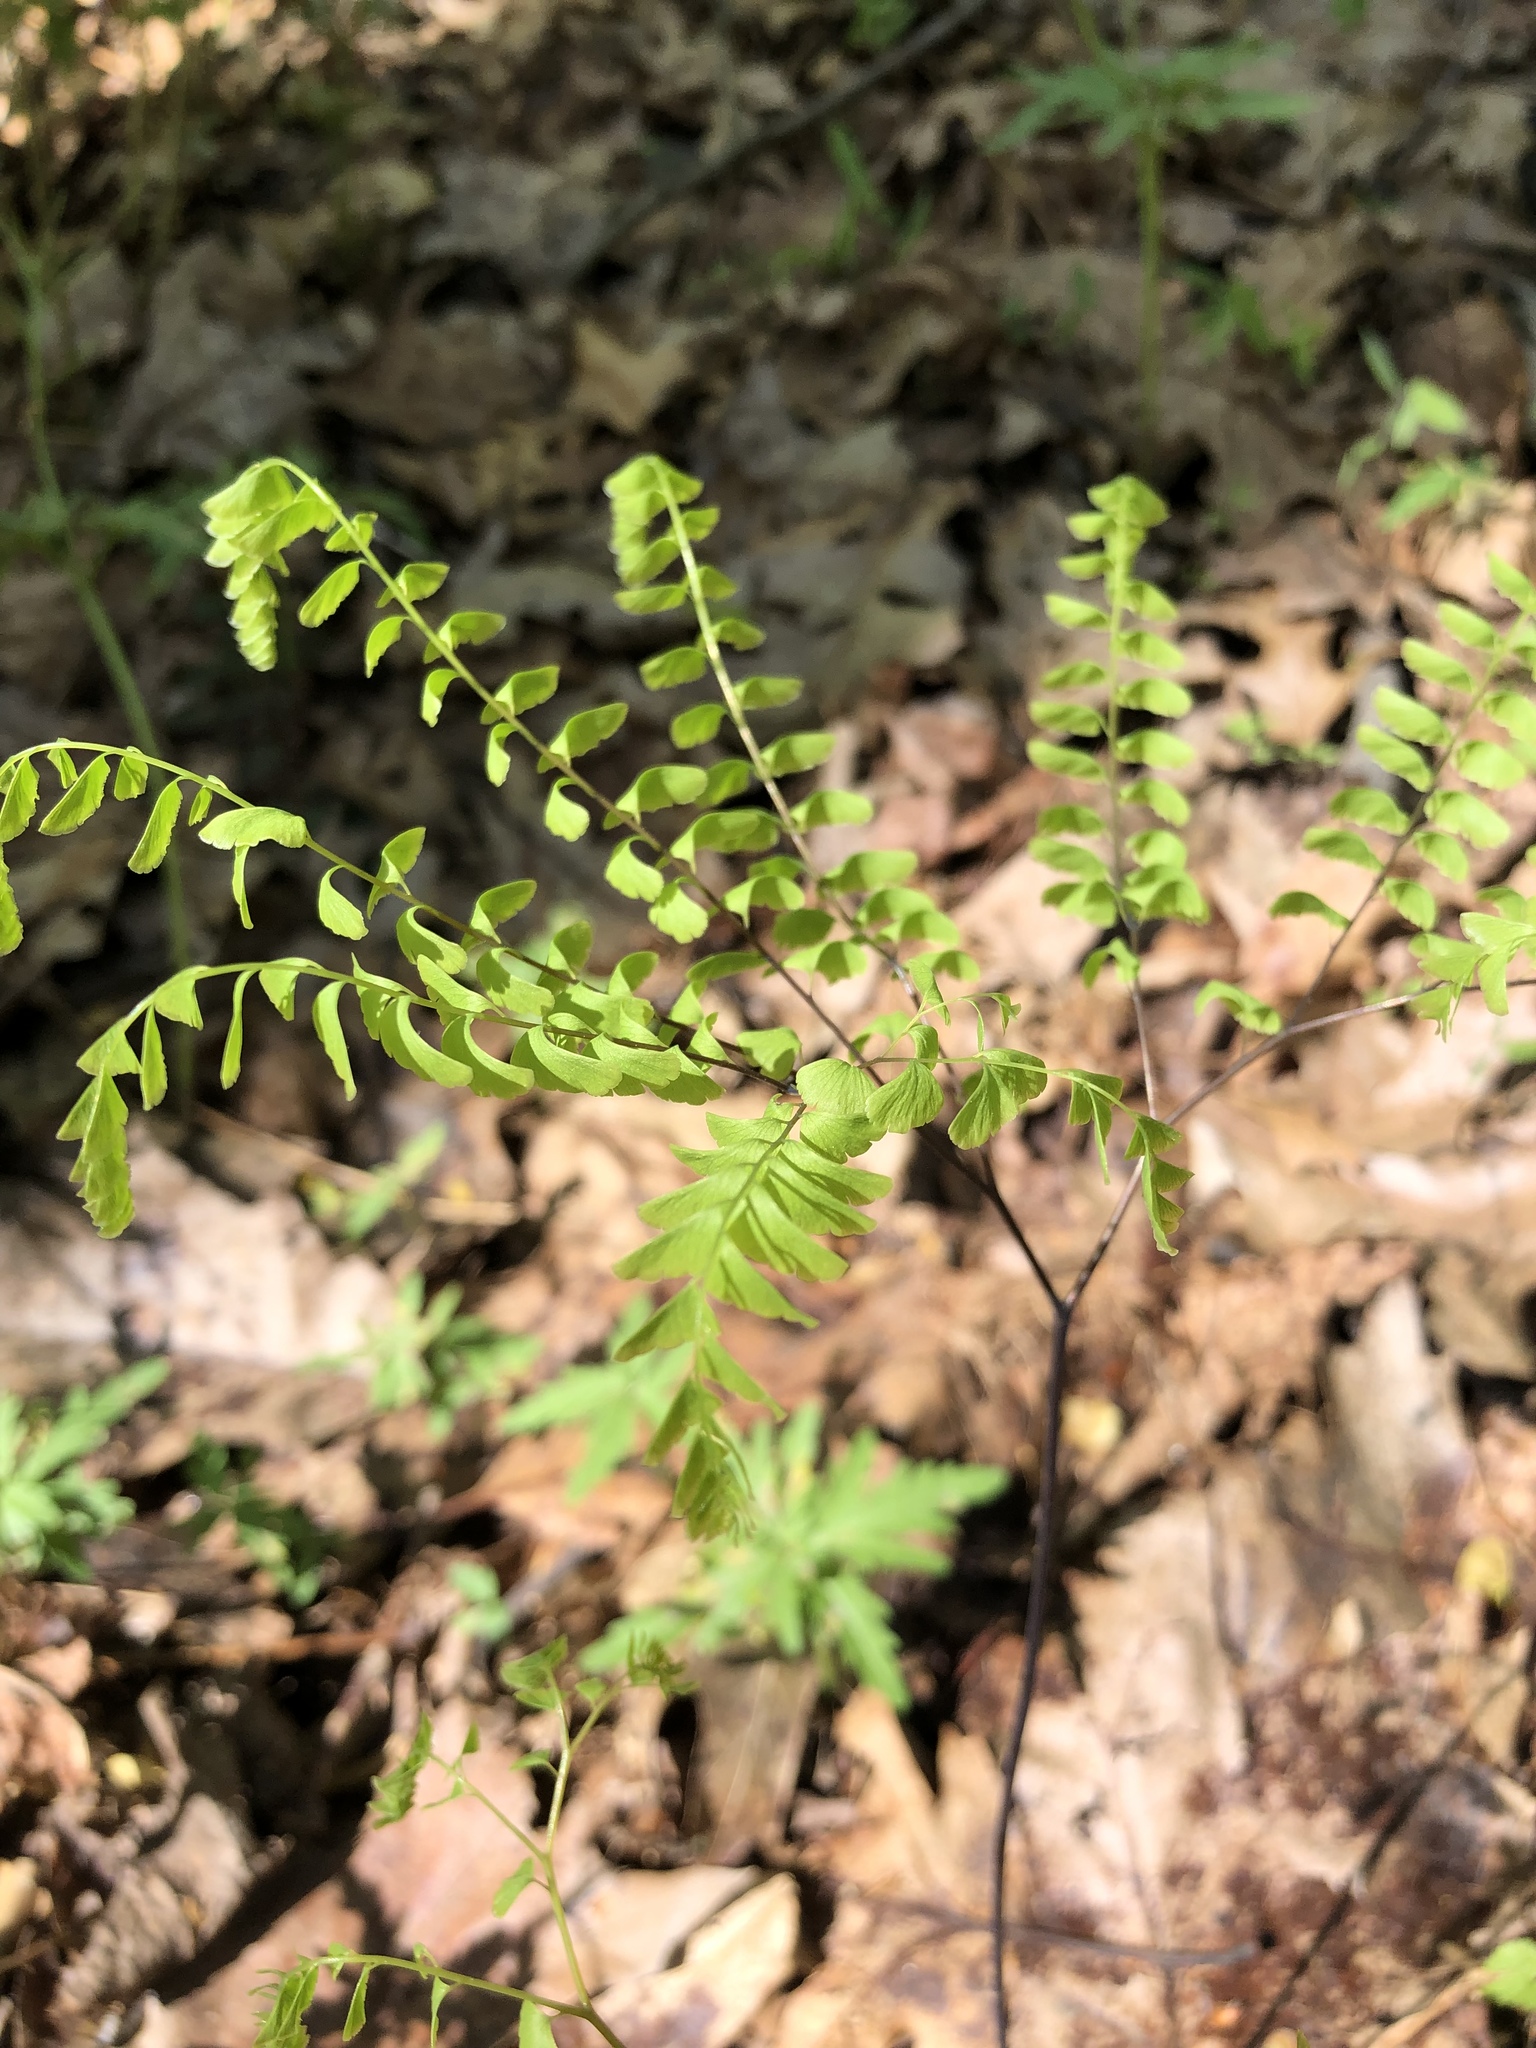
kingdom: Plantae
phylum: Tracheophyta
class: Polypodiopsida
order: Polypodiales
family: Pteridaceae
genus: Adiantum
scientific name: Adiantum pedatum
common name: Five-finger fern
